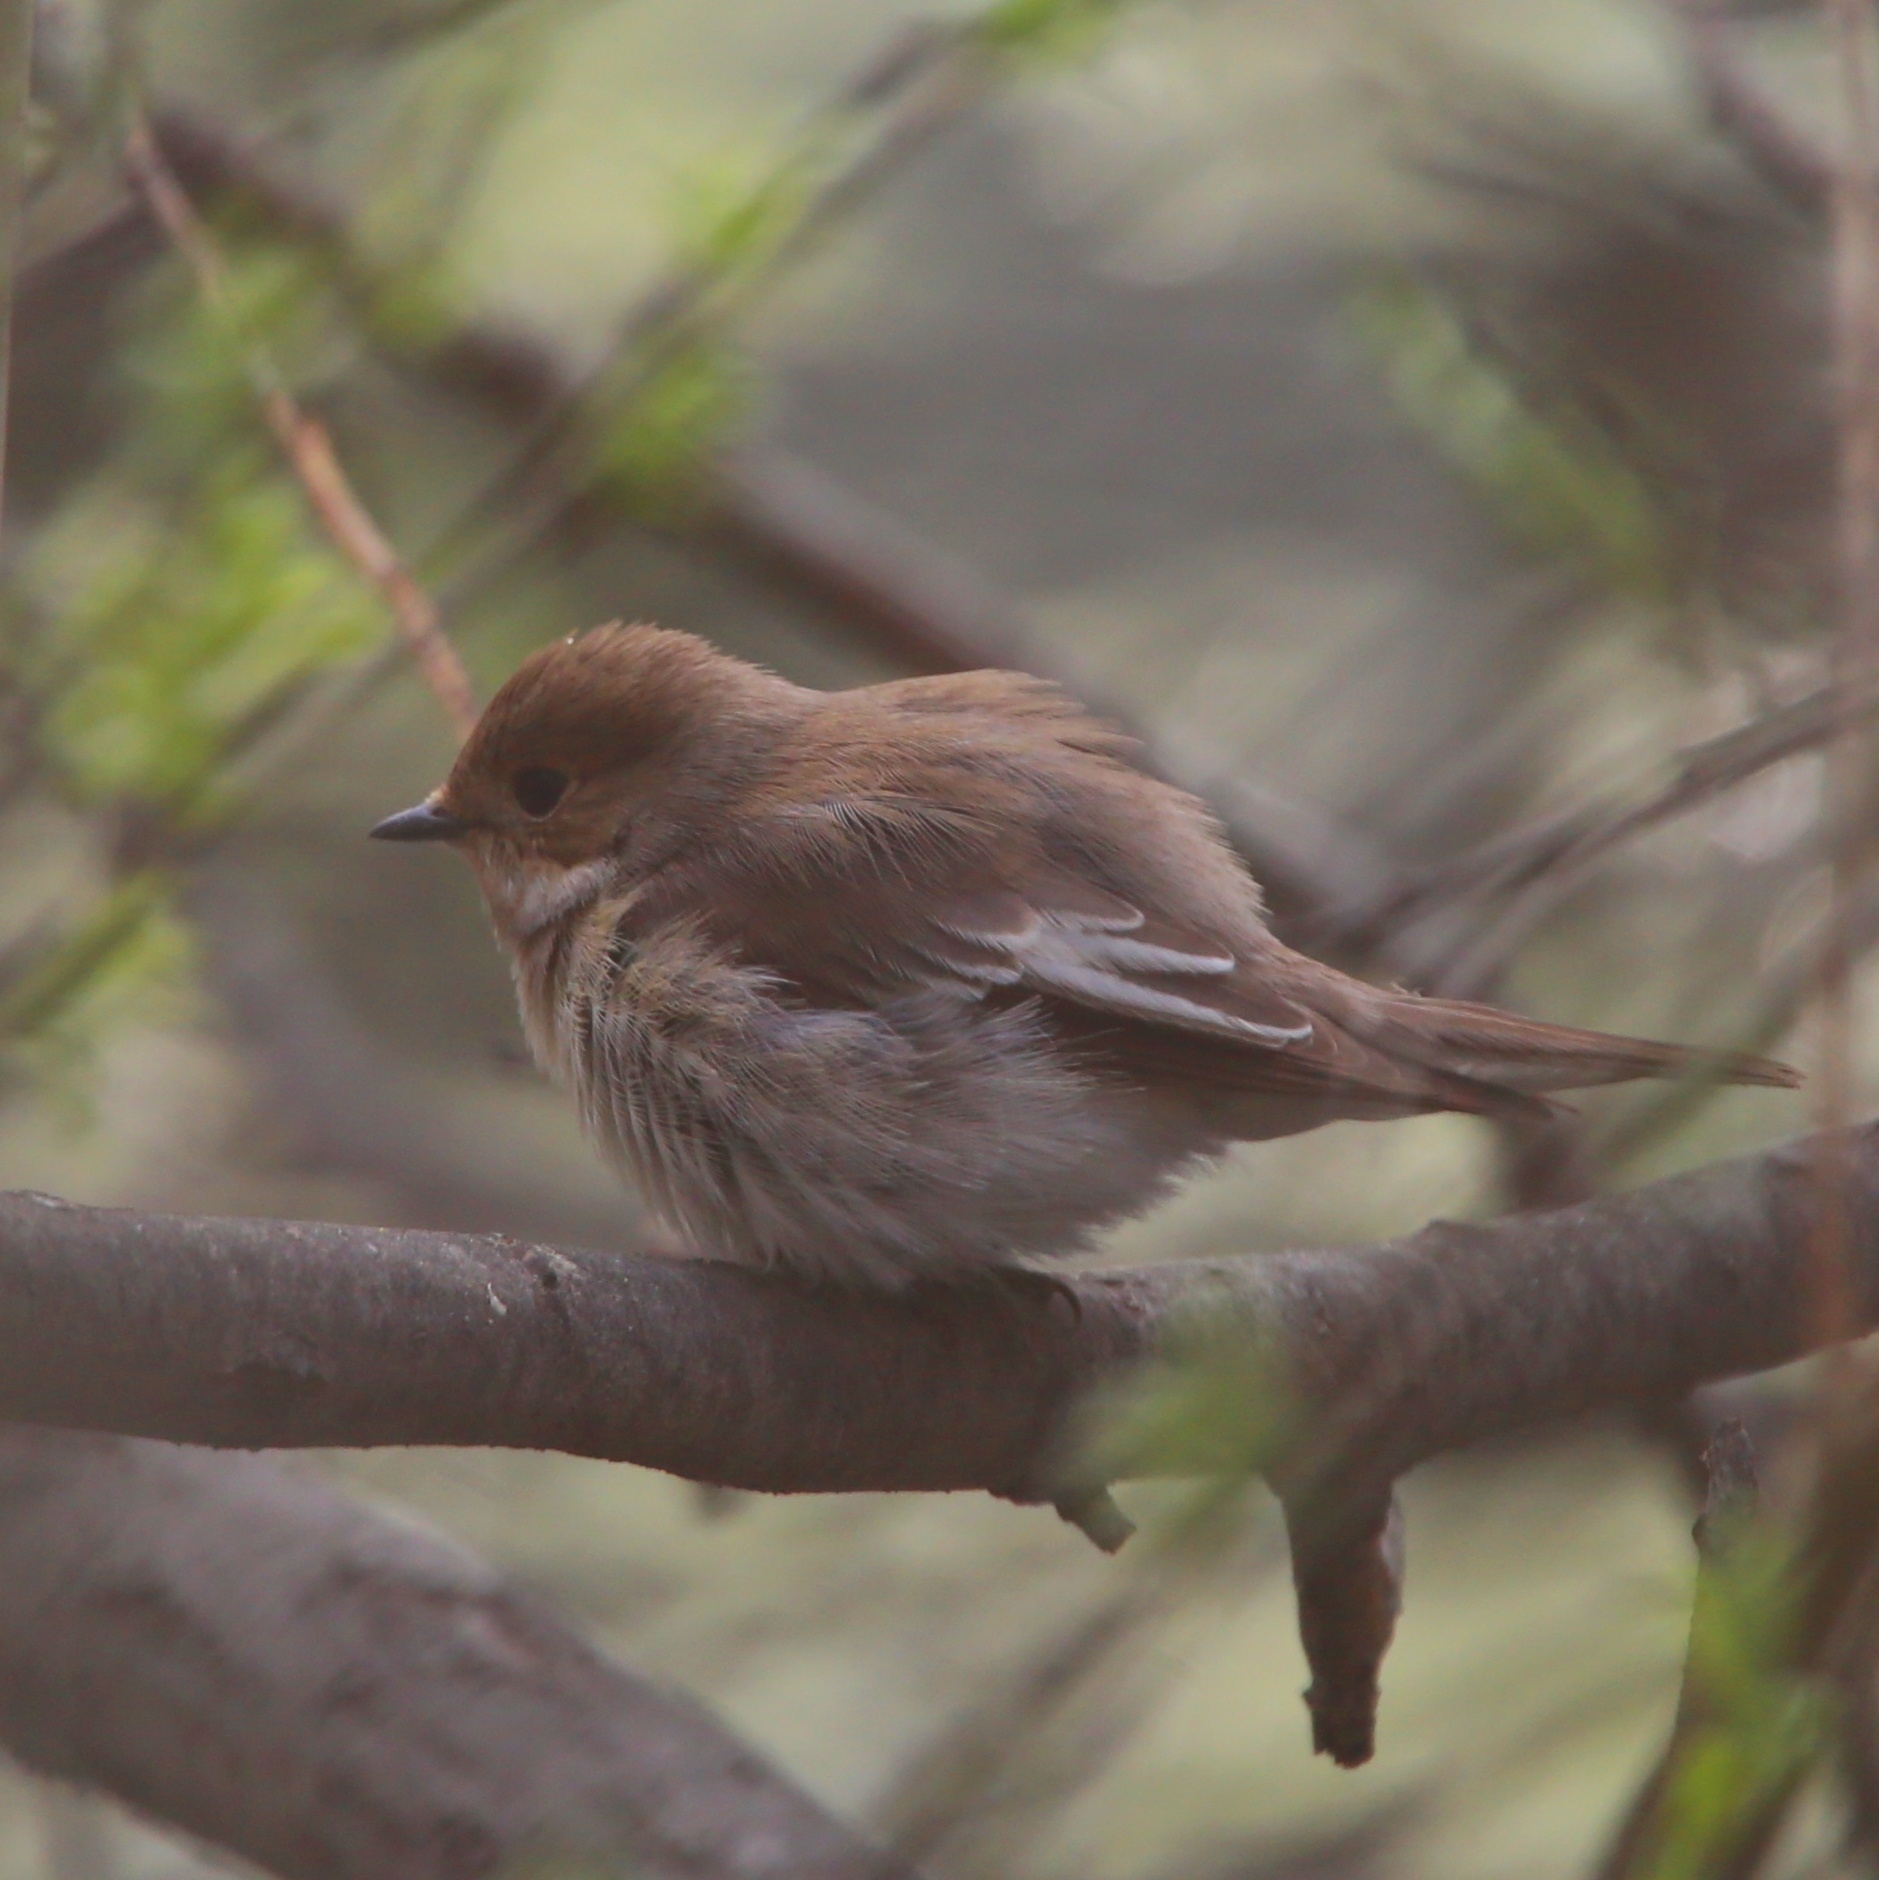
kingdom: Animalia
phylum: Chordata
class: Aves
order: Passeriformes
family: Muscicapidae
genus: Ficedula
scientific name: Ficedula hypoleuca
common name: European pied flycatcher
